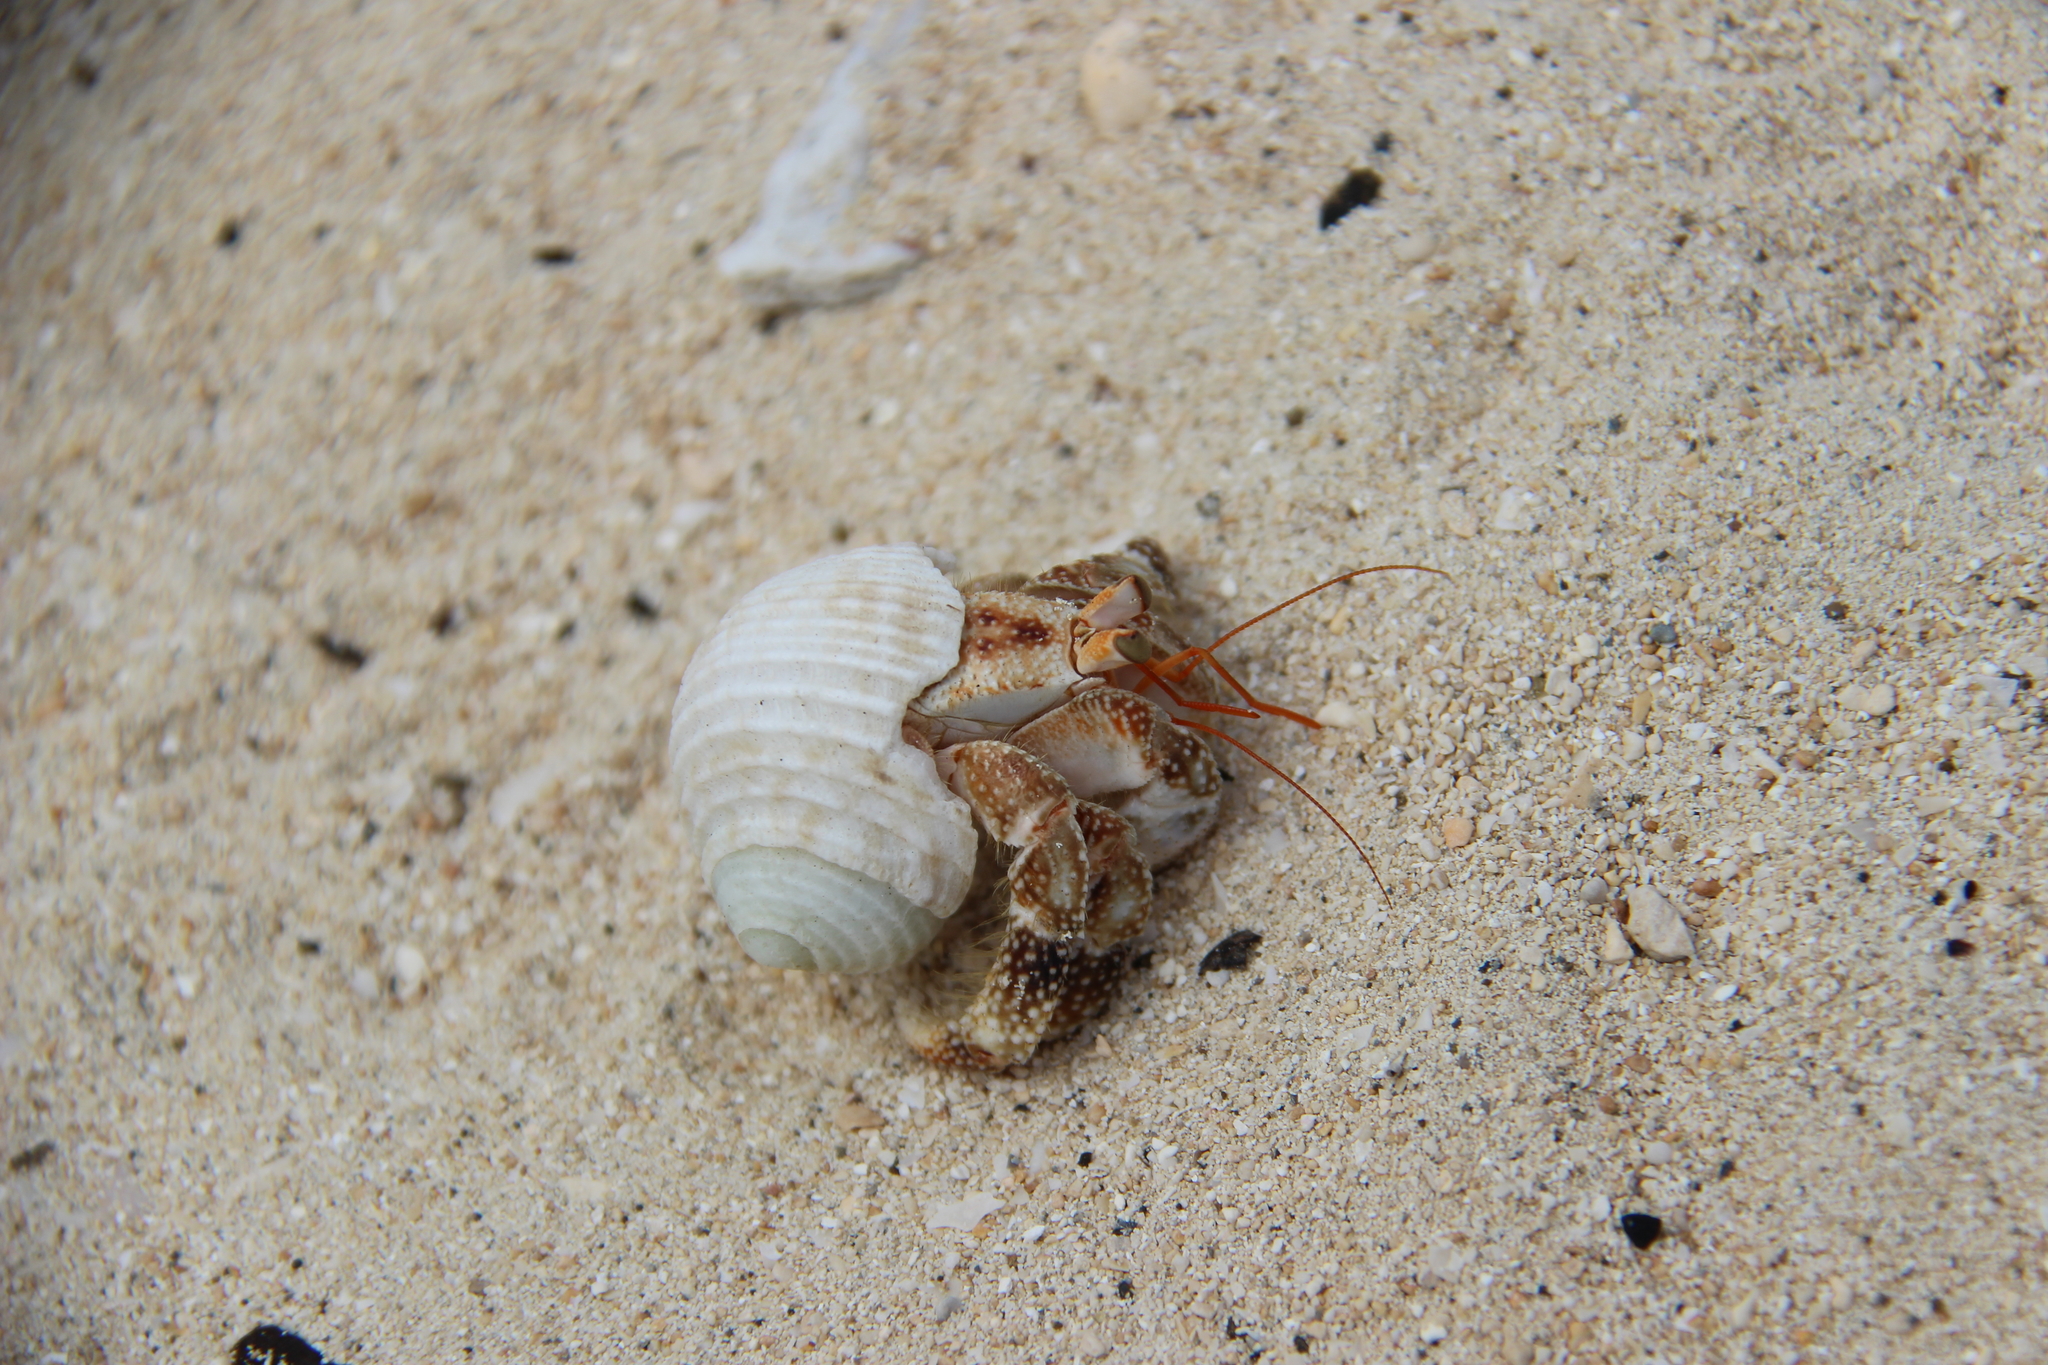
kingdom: Animalia
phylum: Arthropoda
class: Malacostraca
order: Decapoda
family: Coenobitidae
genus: Coenobita
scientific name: Coenobita perlatus
